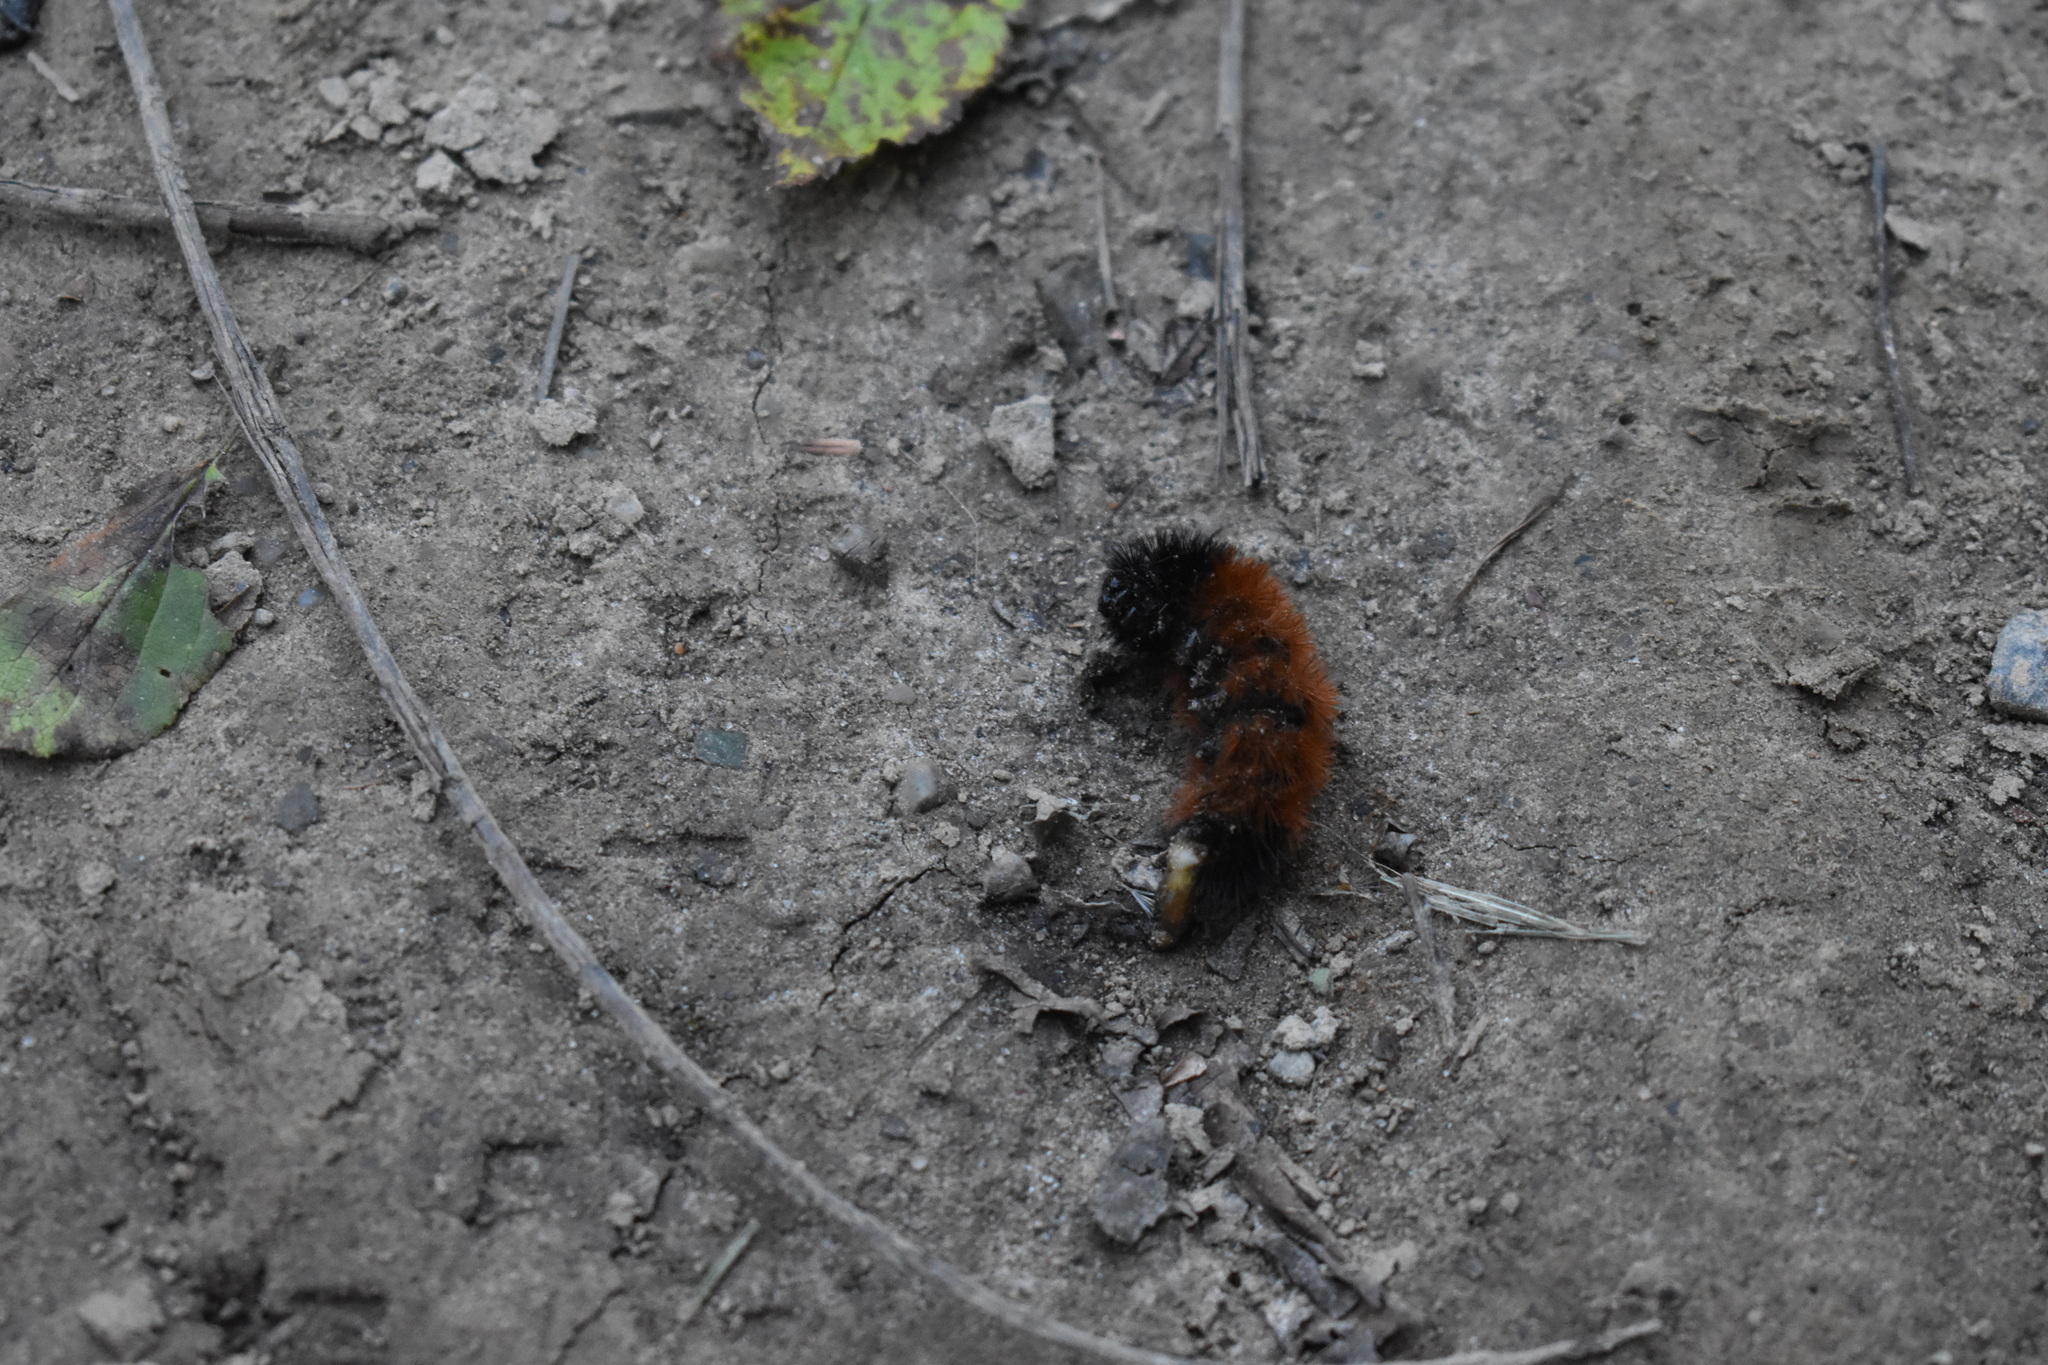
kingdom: Animalia
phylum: Arthropoda
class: Insecta
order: Lepidoptera
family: Erebidae
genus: Pyrrharctia
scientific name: Pyrrharctia isabella
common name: Isabella tiger moth
